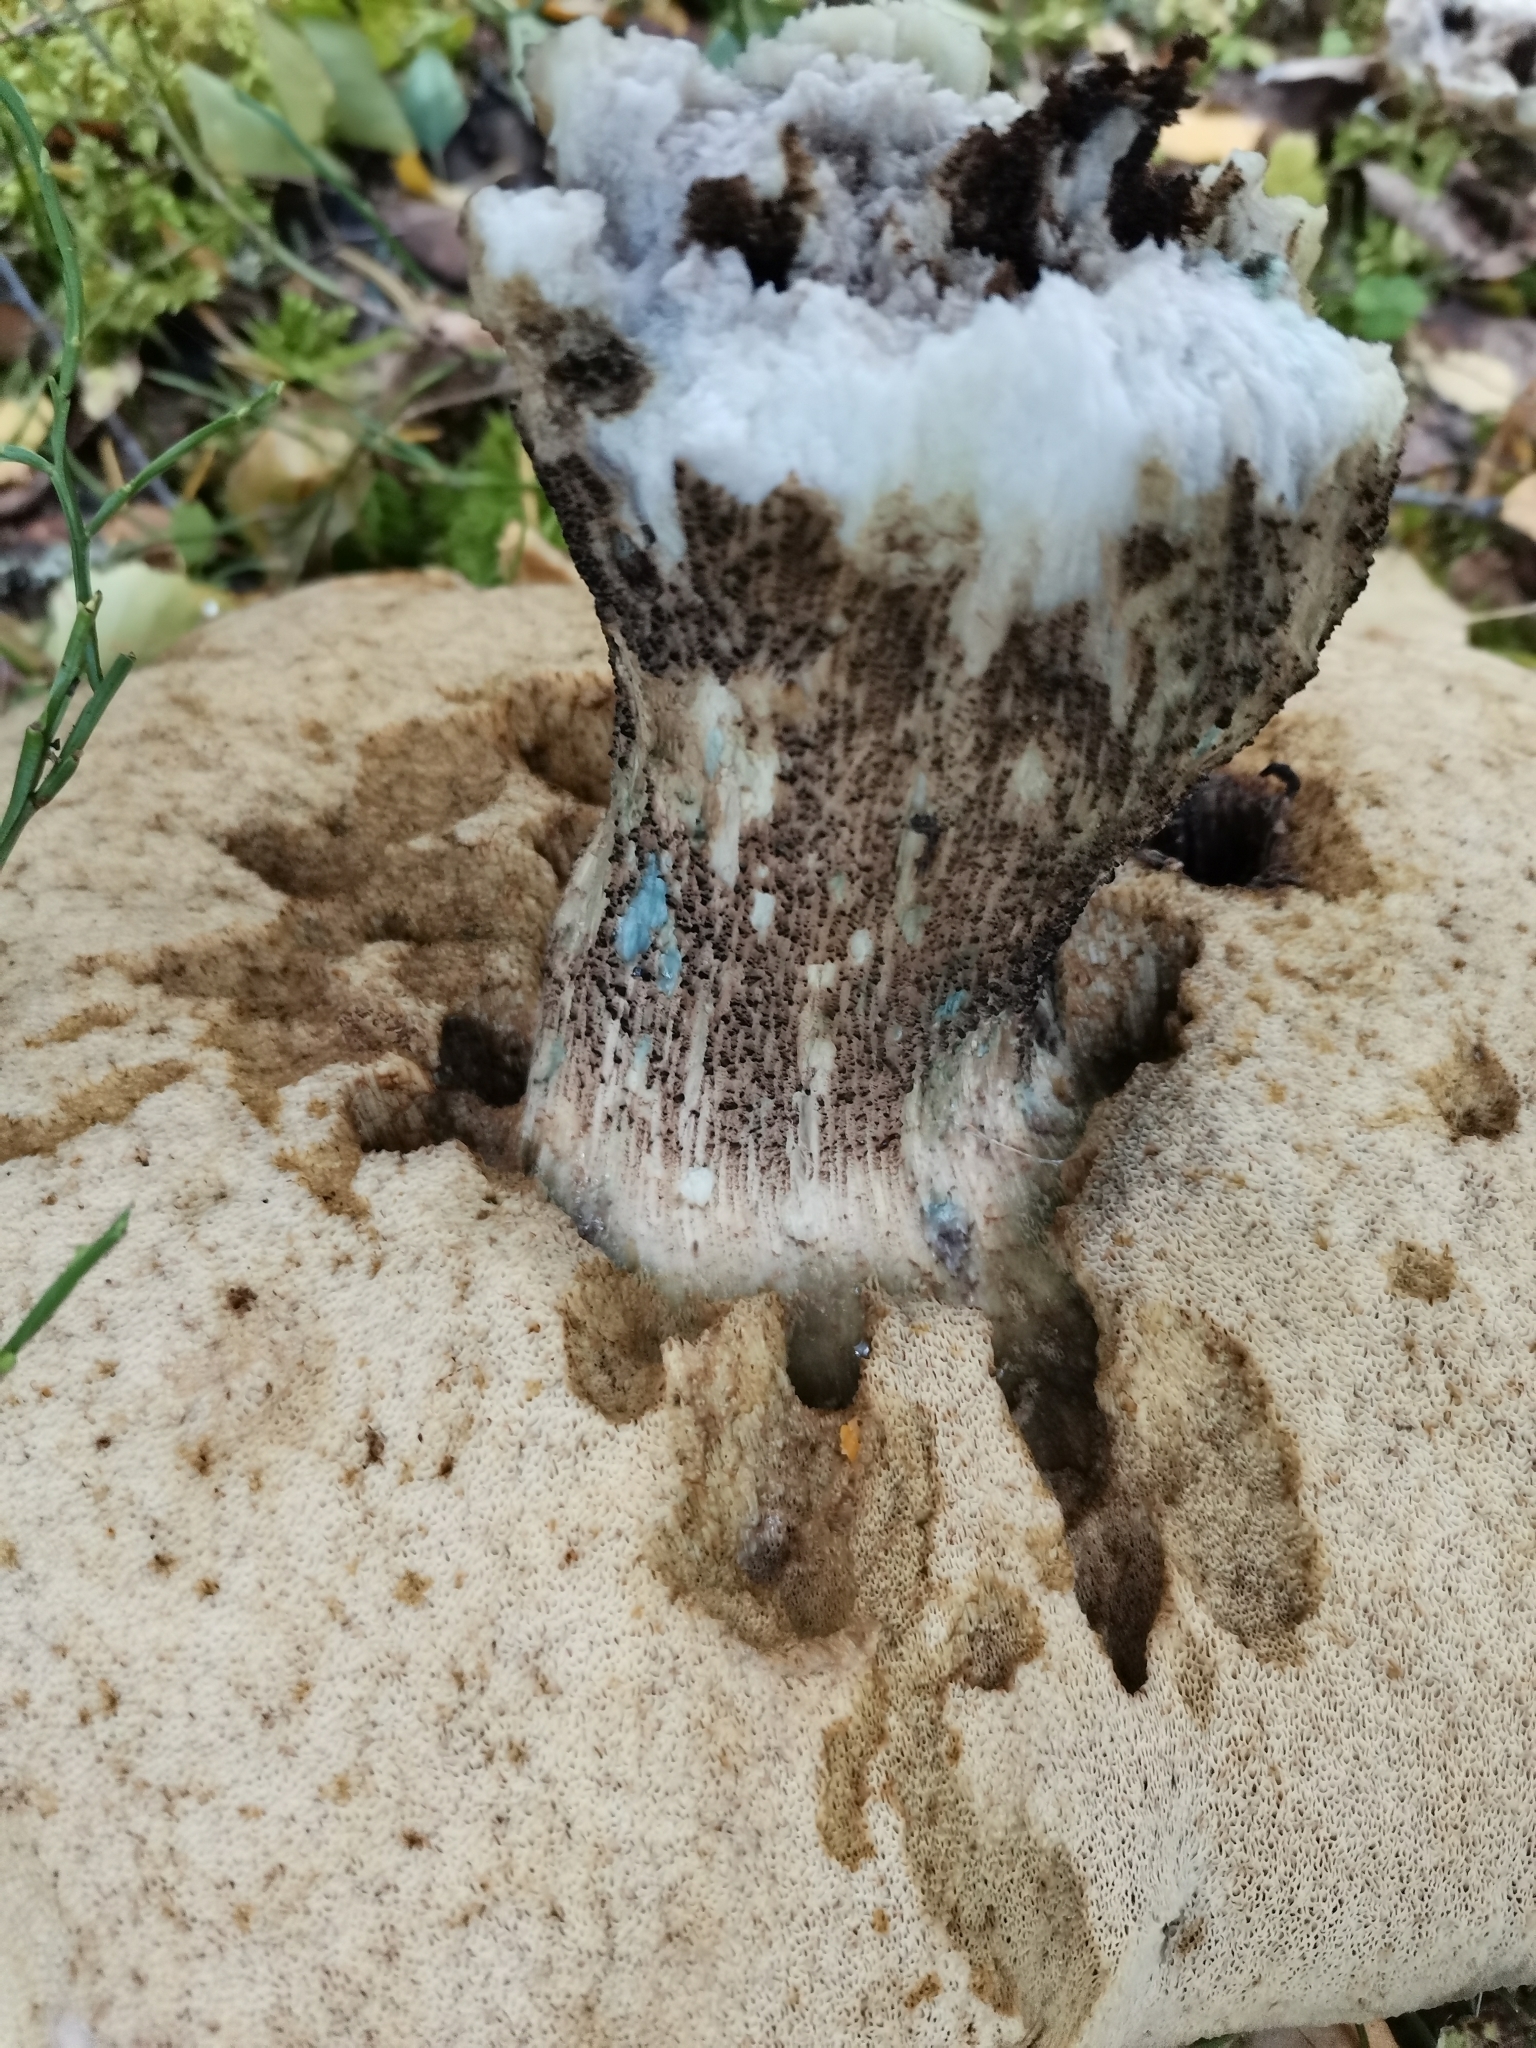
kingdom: Fungi
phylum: Basidiomycota
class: Agaricomycetes
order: Boletales
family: Boletaceae
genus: Leccinum
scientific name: Leccinum versipelle
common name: Orange birch bolete
